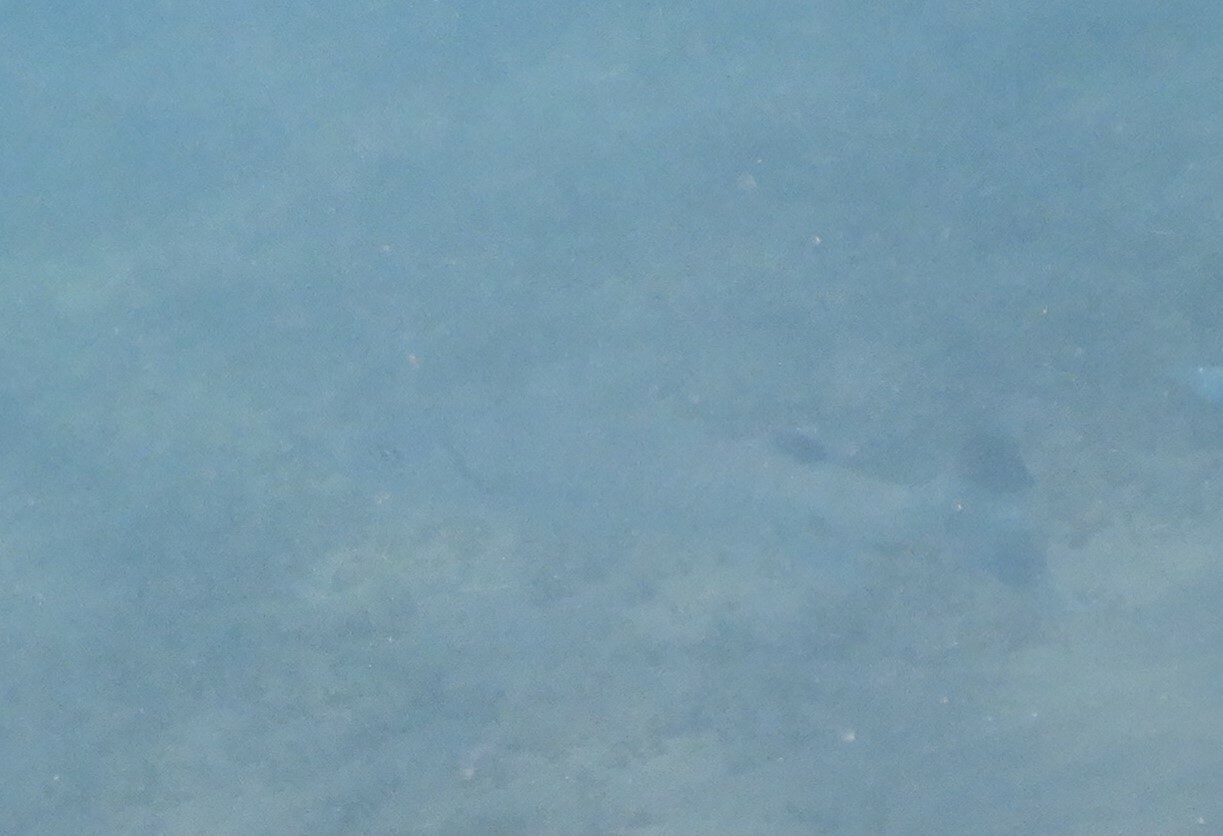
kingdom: Animalia
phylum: Chordata
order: Perciformes
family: Sphyraenidae
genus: Sphyraena
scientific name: Sphyraena barracuda
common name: Great barracuda
